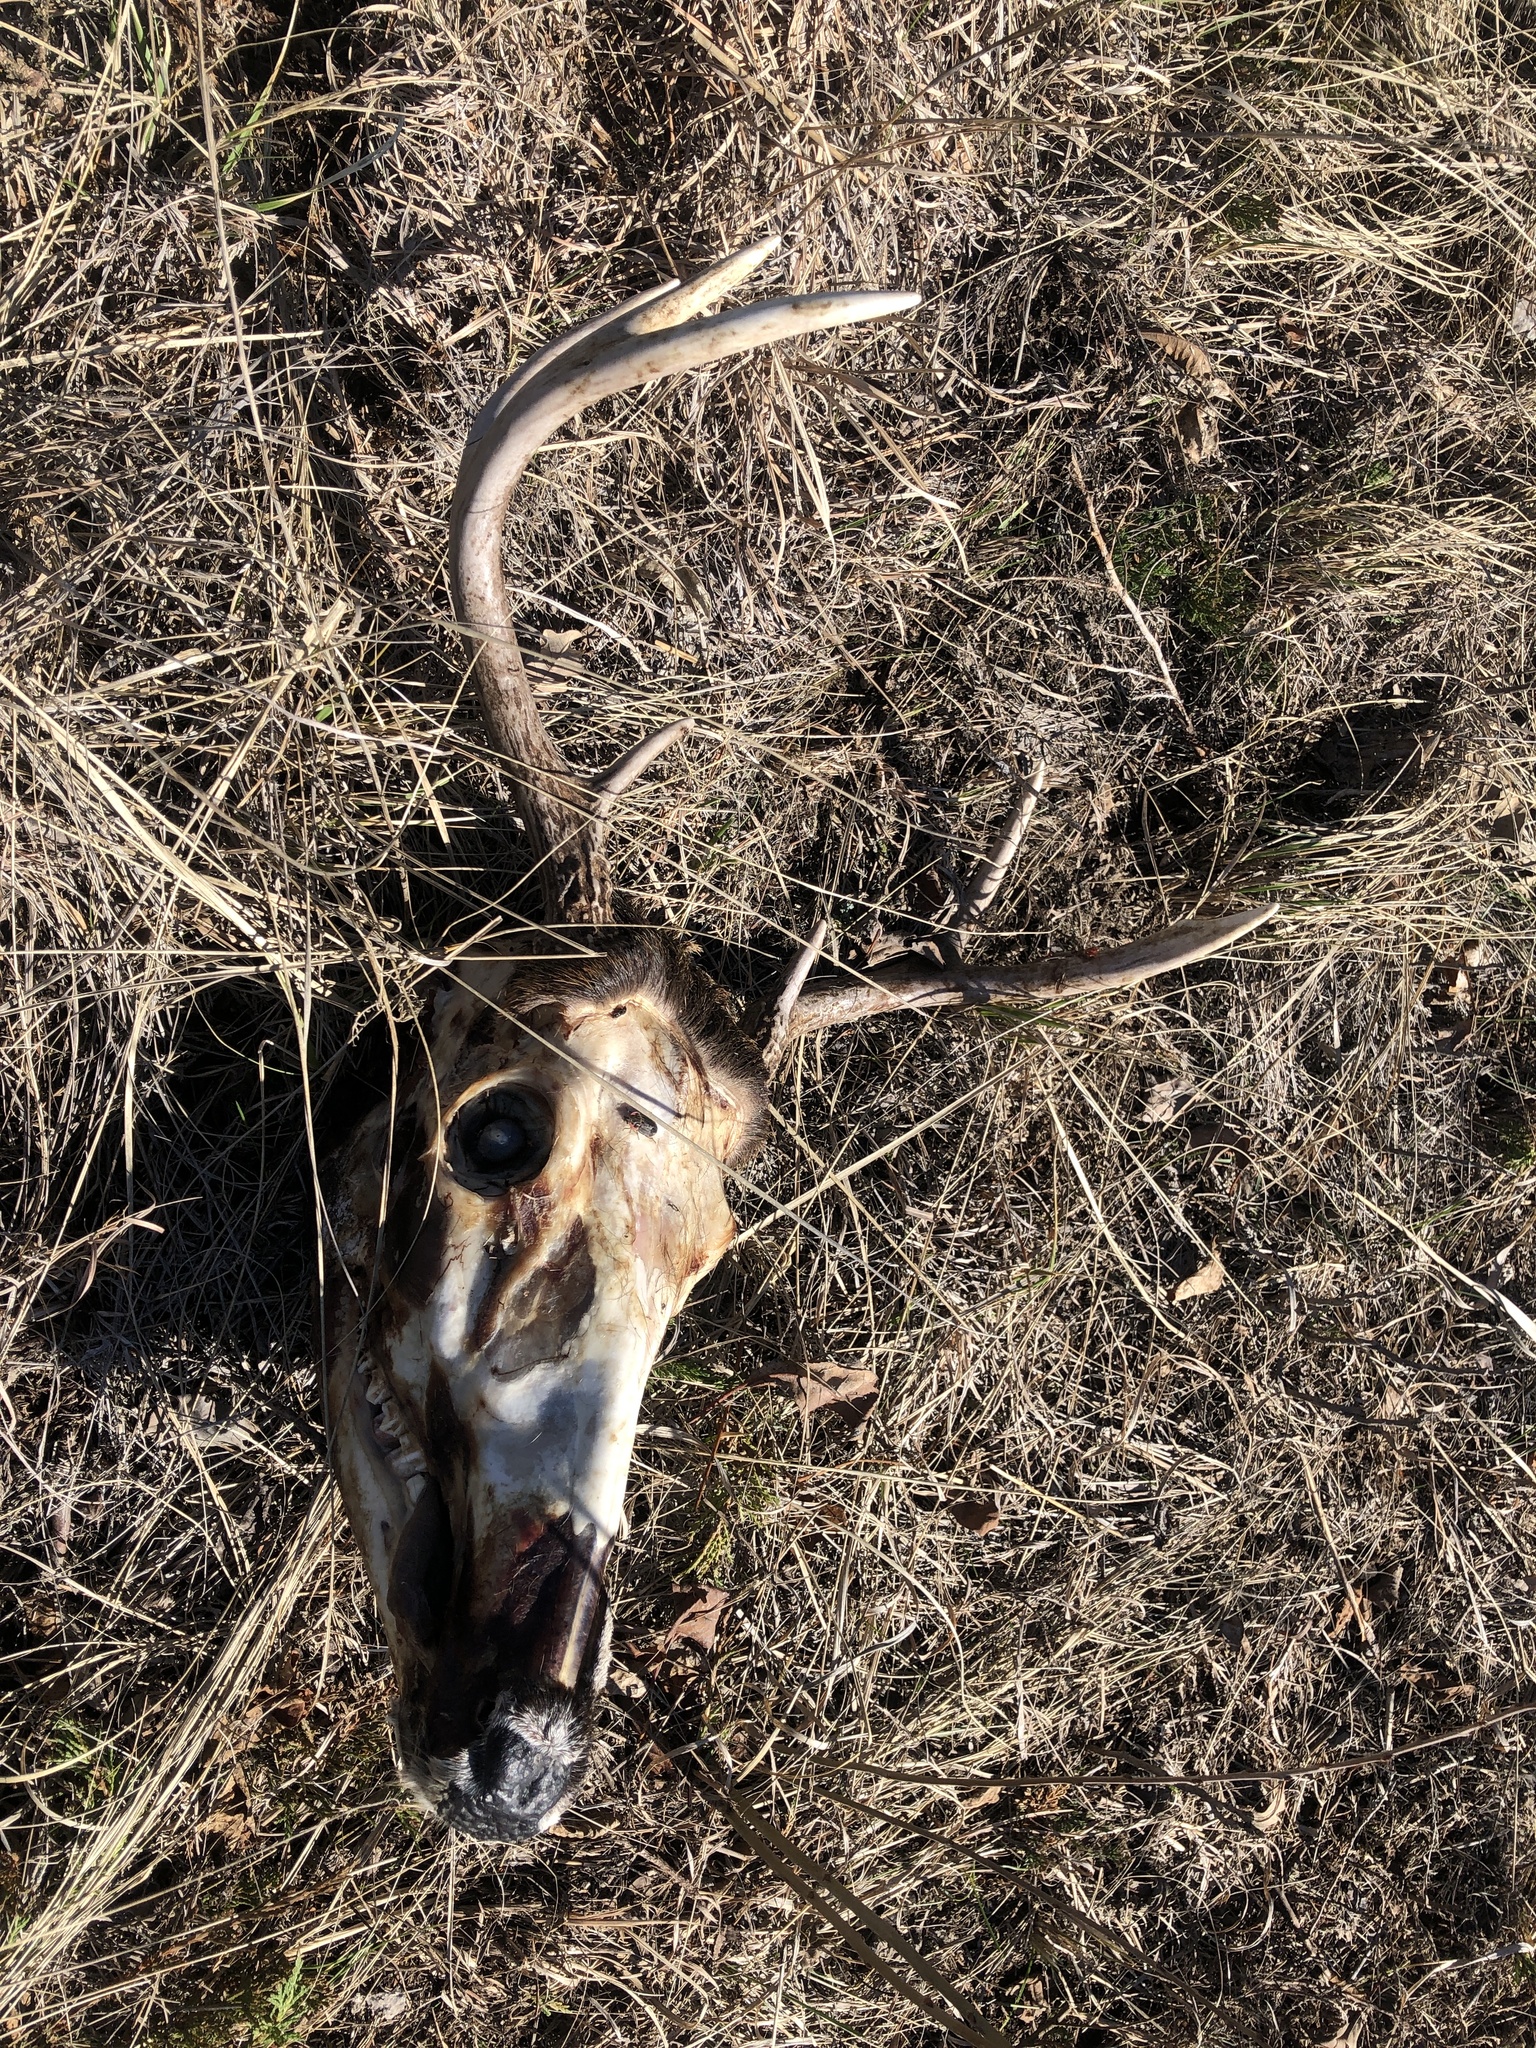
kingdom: Animalia
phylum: Chordata
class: Mammalia
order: Artiodactyla
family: Cervidae
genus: Odocoileus
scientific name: Odocoileus virginianus
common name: White-tailed deer
